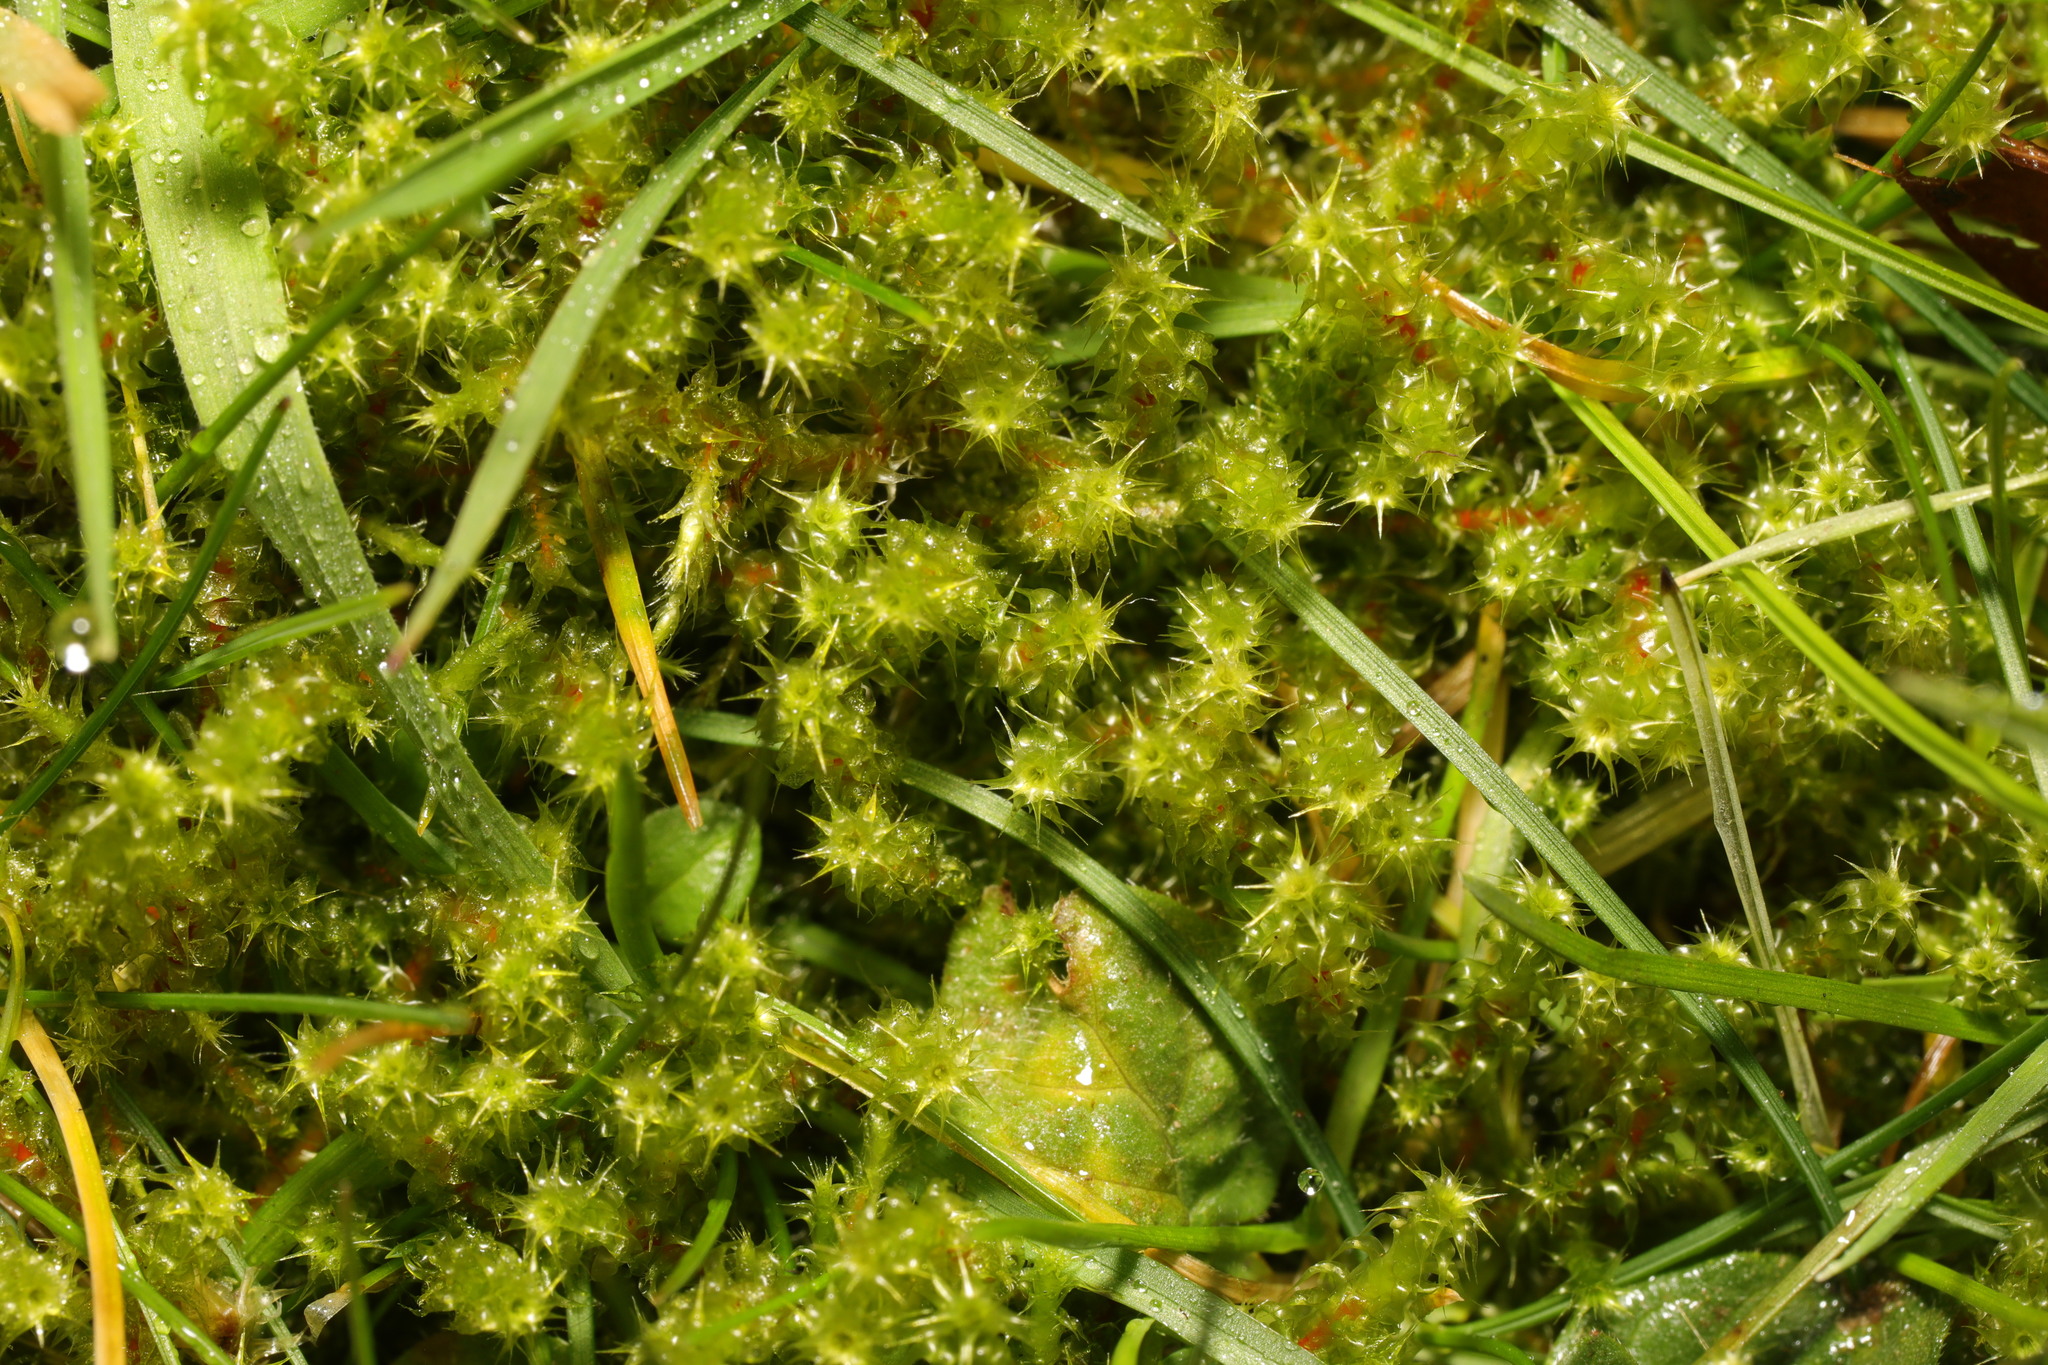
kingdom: Plantae
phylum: Bryophyta
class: Bryopsida
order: Hypnales
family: Hylocomiaceae
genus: Rhytidiadelphus
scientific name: Rhytidiadelphus squarrosus
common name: Springy turf-moss
